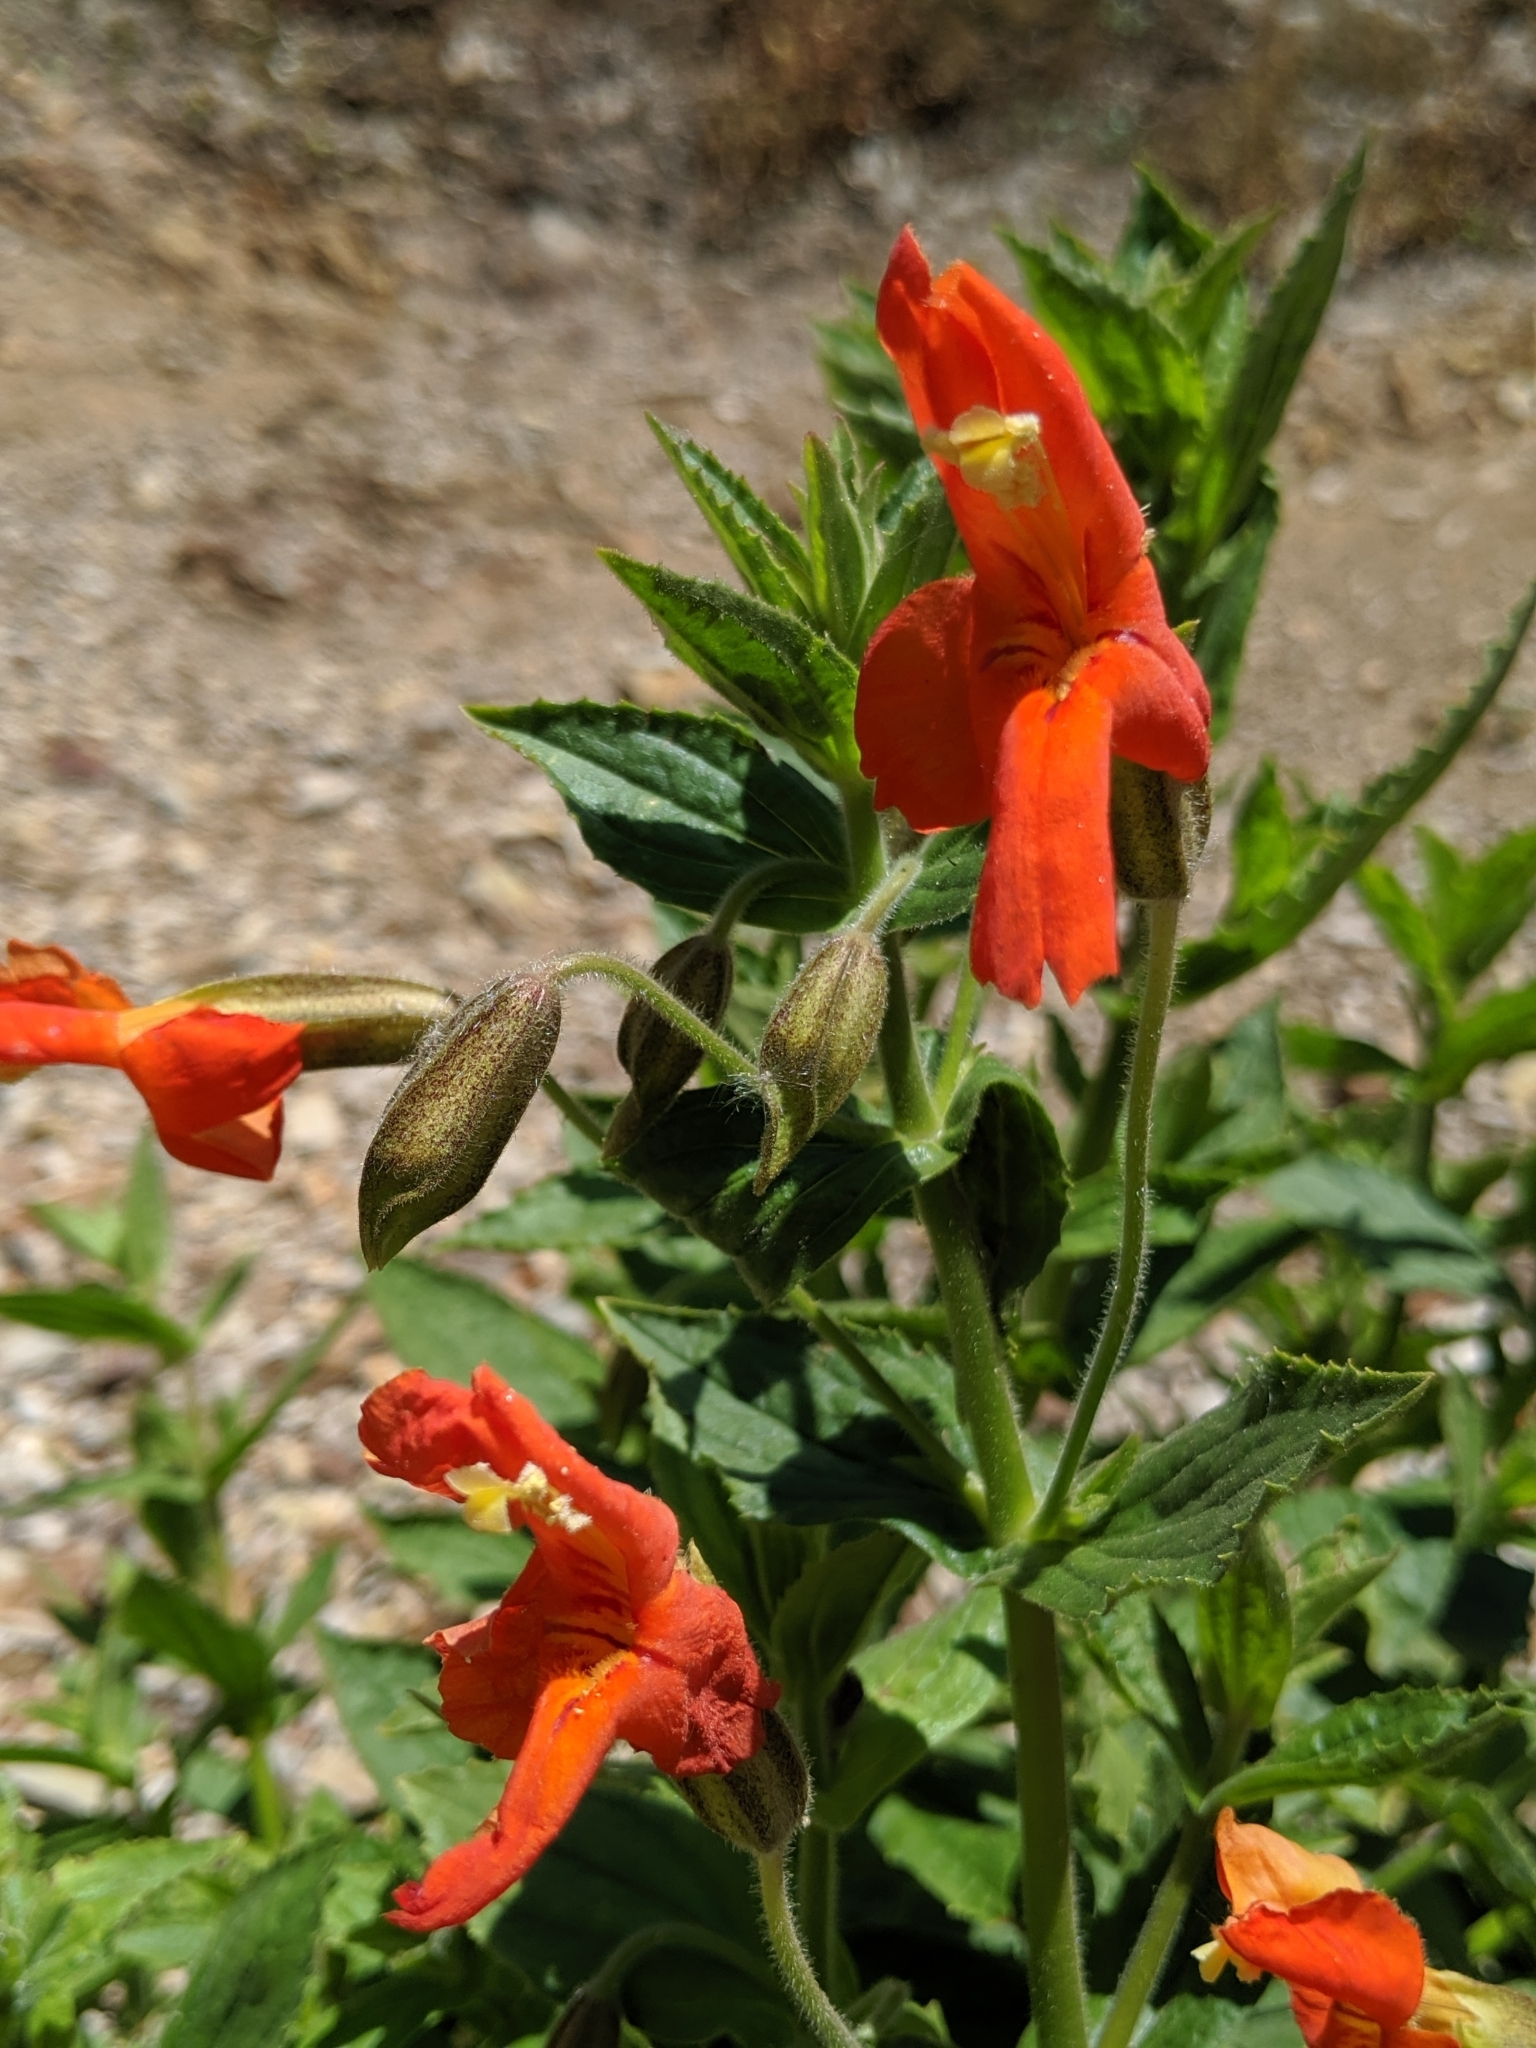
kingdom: Plantae
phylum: Tracheophyta
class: Magnoliopsida
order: Lamiales
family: Phrymaceae
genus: Erythranthe
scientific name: Erythranthe cardinalis
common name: Scarlet monkey-flower
